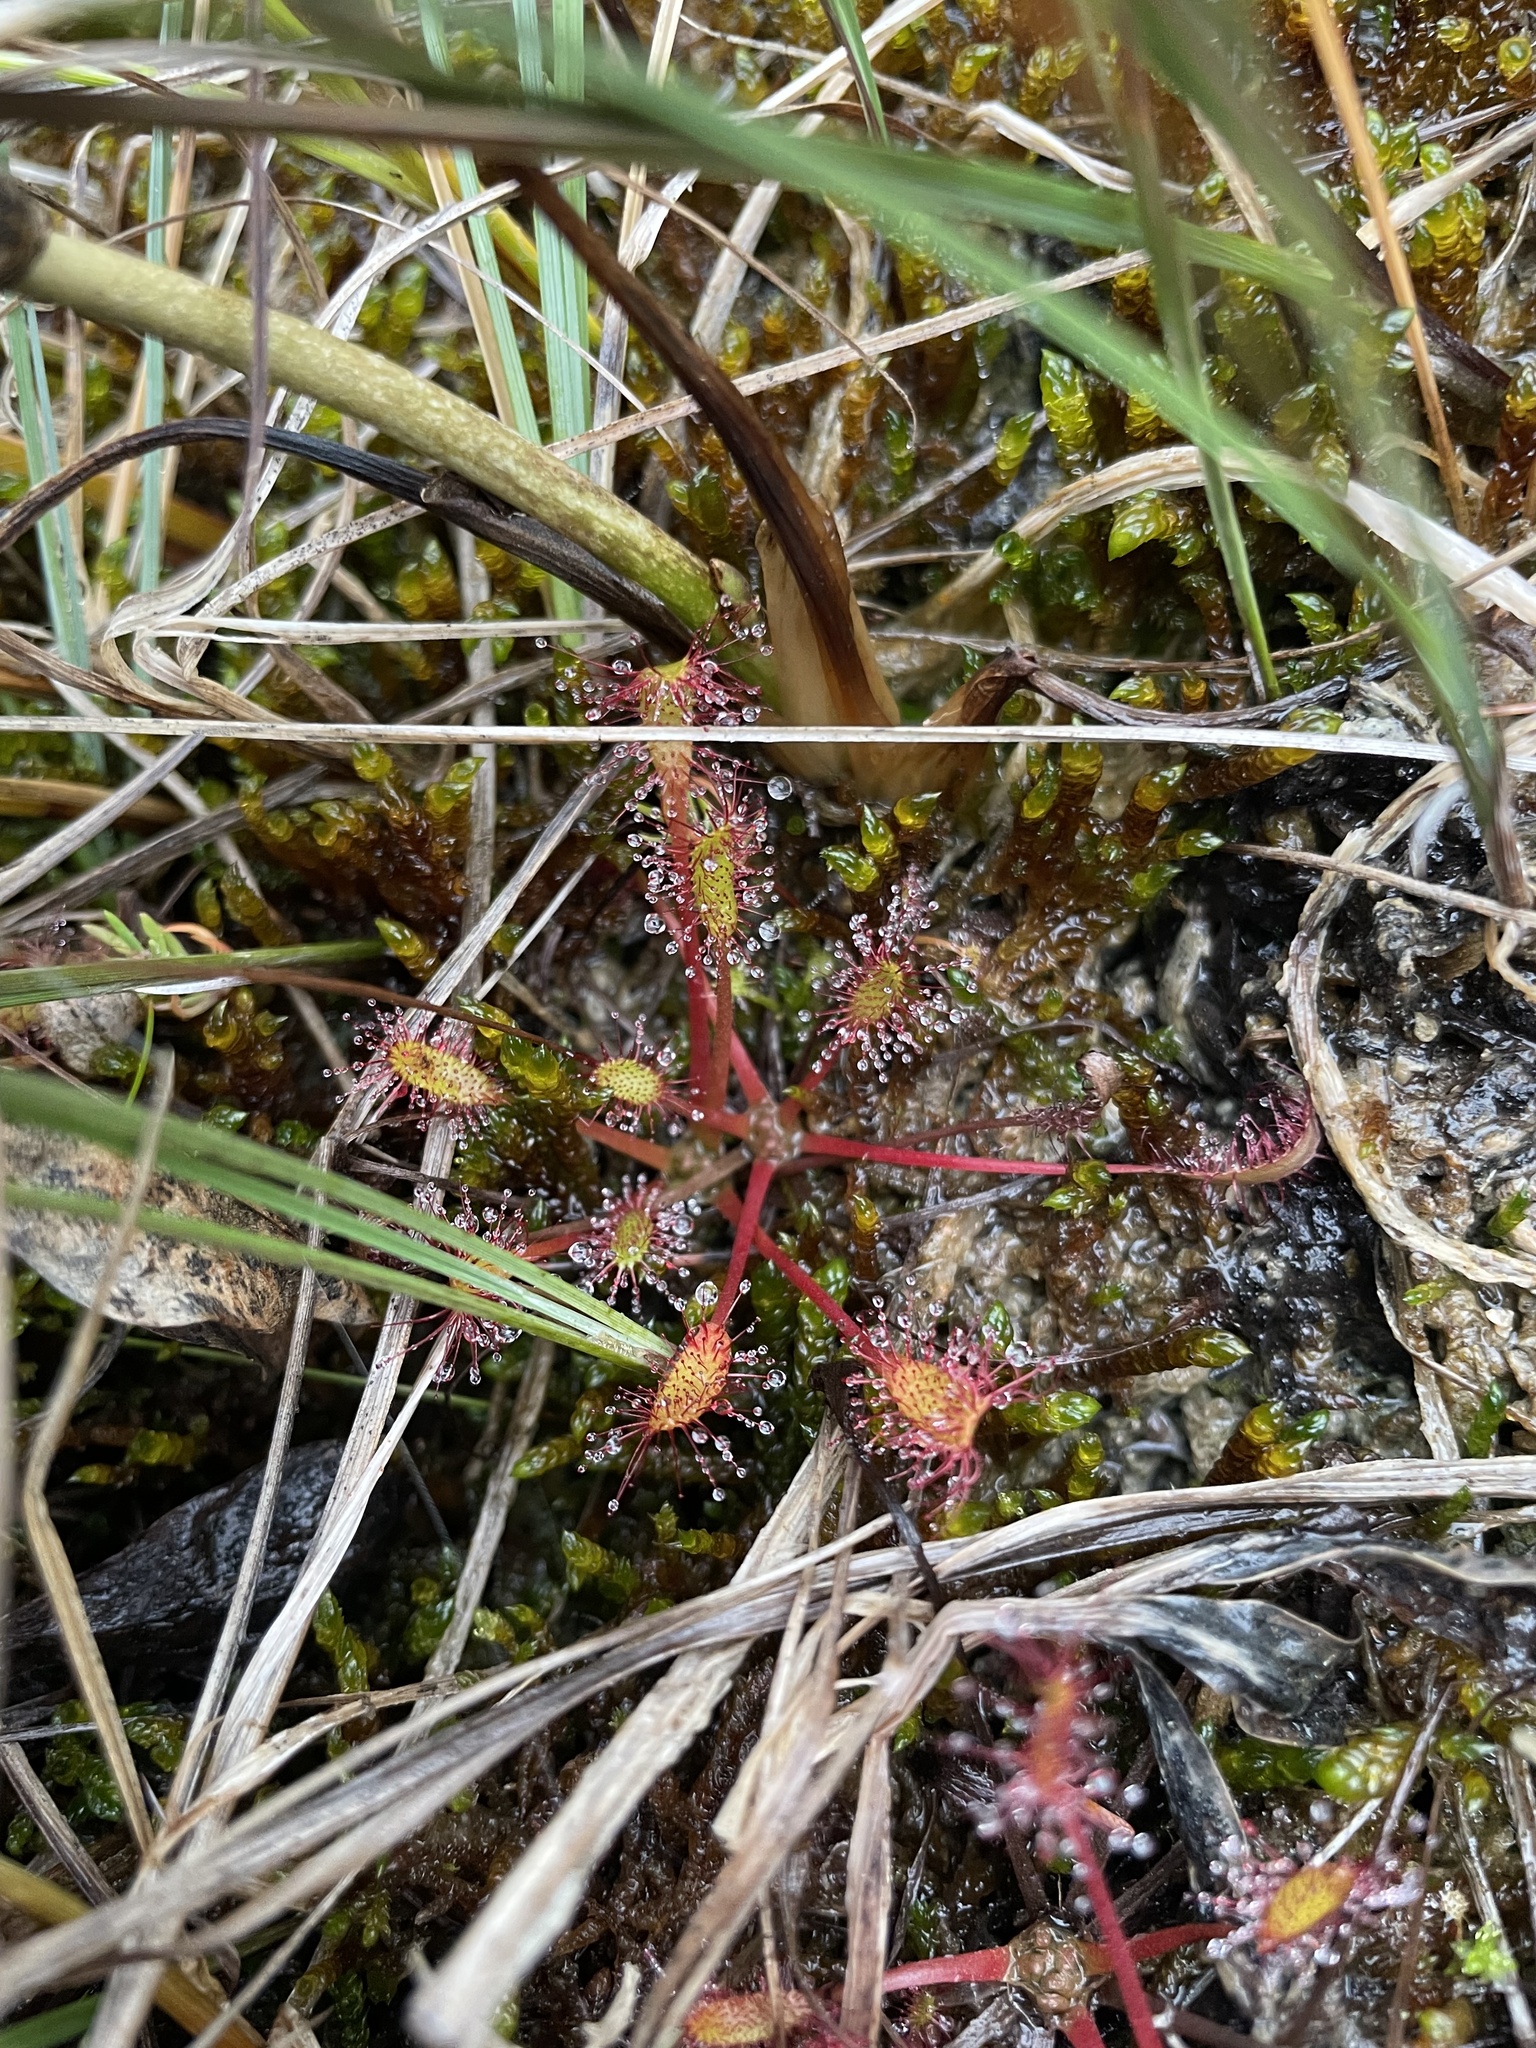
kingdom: Plantae
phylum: Tracheophyta
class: Magnoliopsida
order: Caryophyllales
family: Droseraceae
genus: Drosera
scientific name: Drosera anglica
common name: Great sundew
